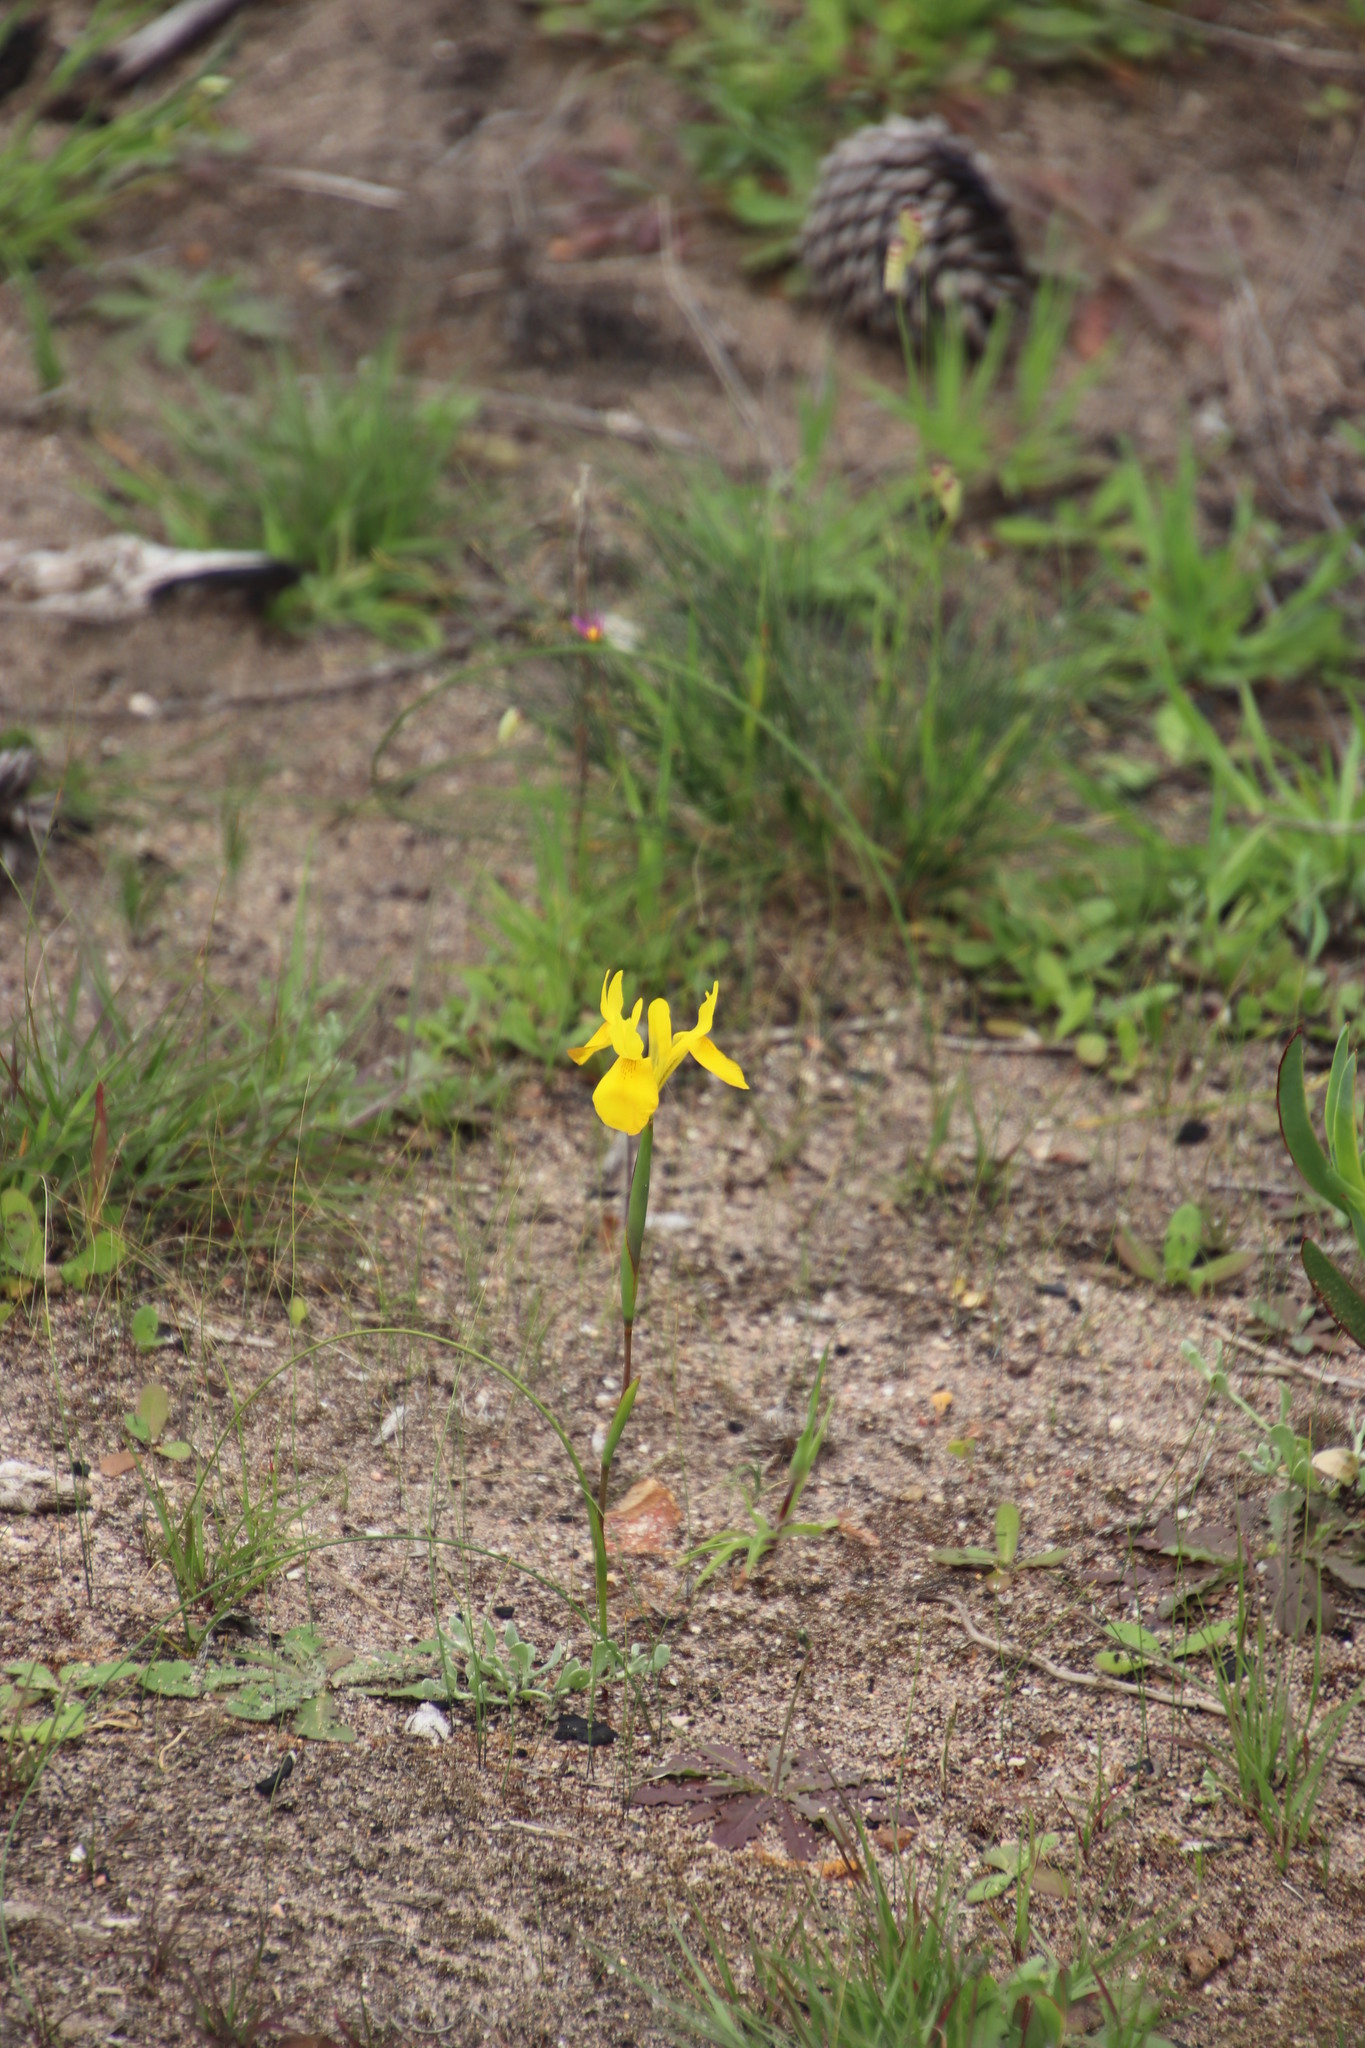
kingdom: Plantae
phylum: Tracheophyta
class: Liliopsida
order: Asparagales
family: Iridaceae
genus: Moraea
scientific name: Moraea neglecta
